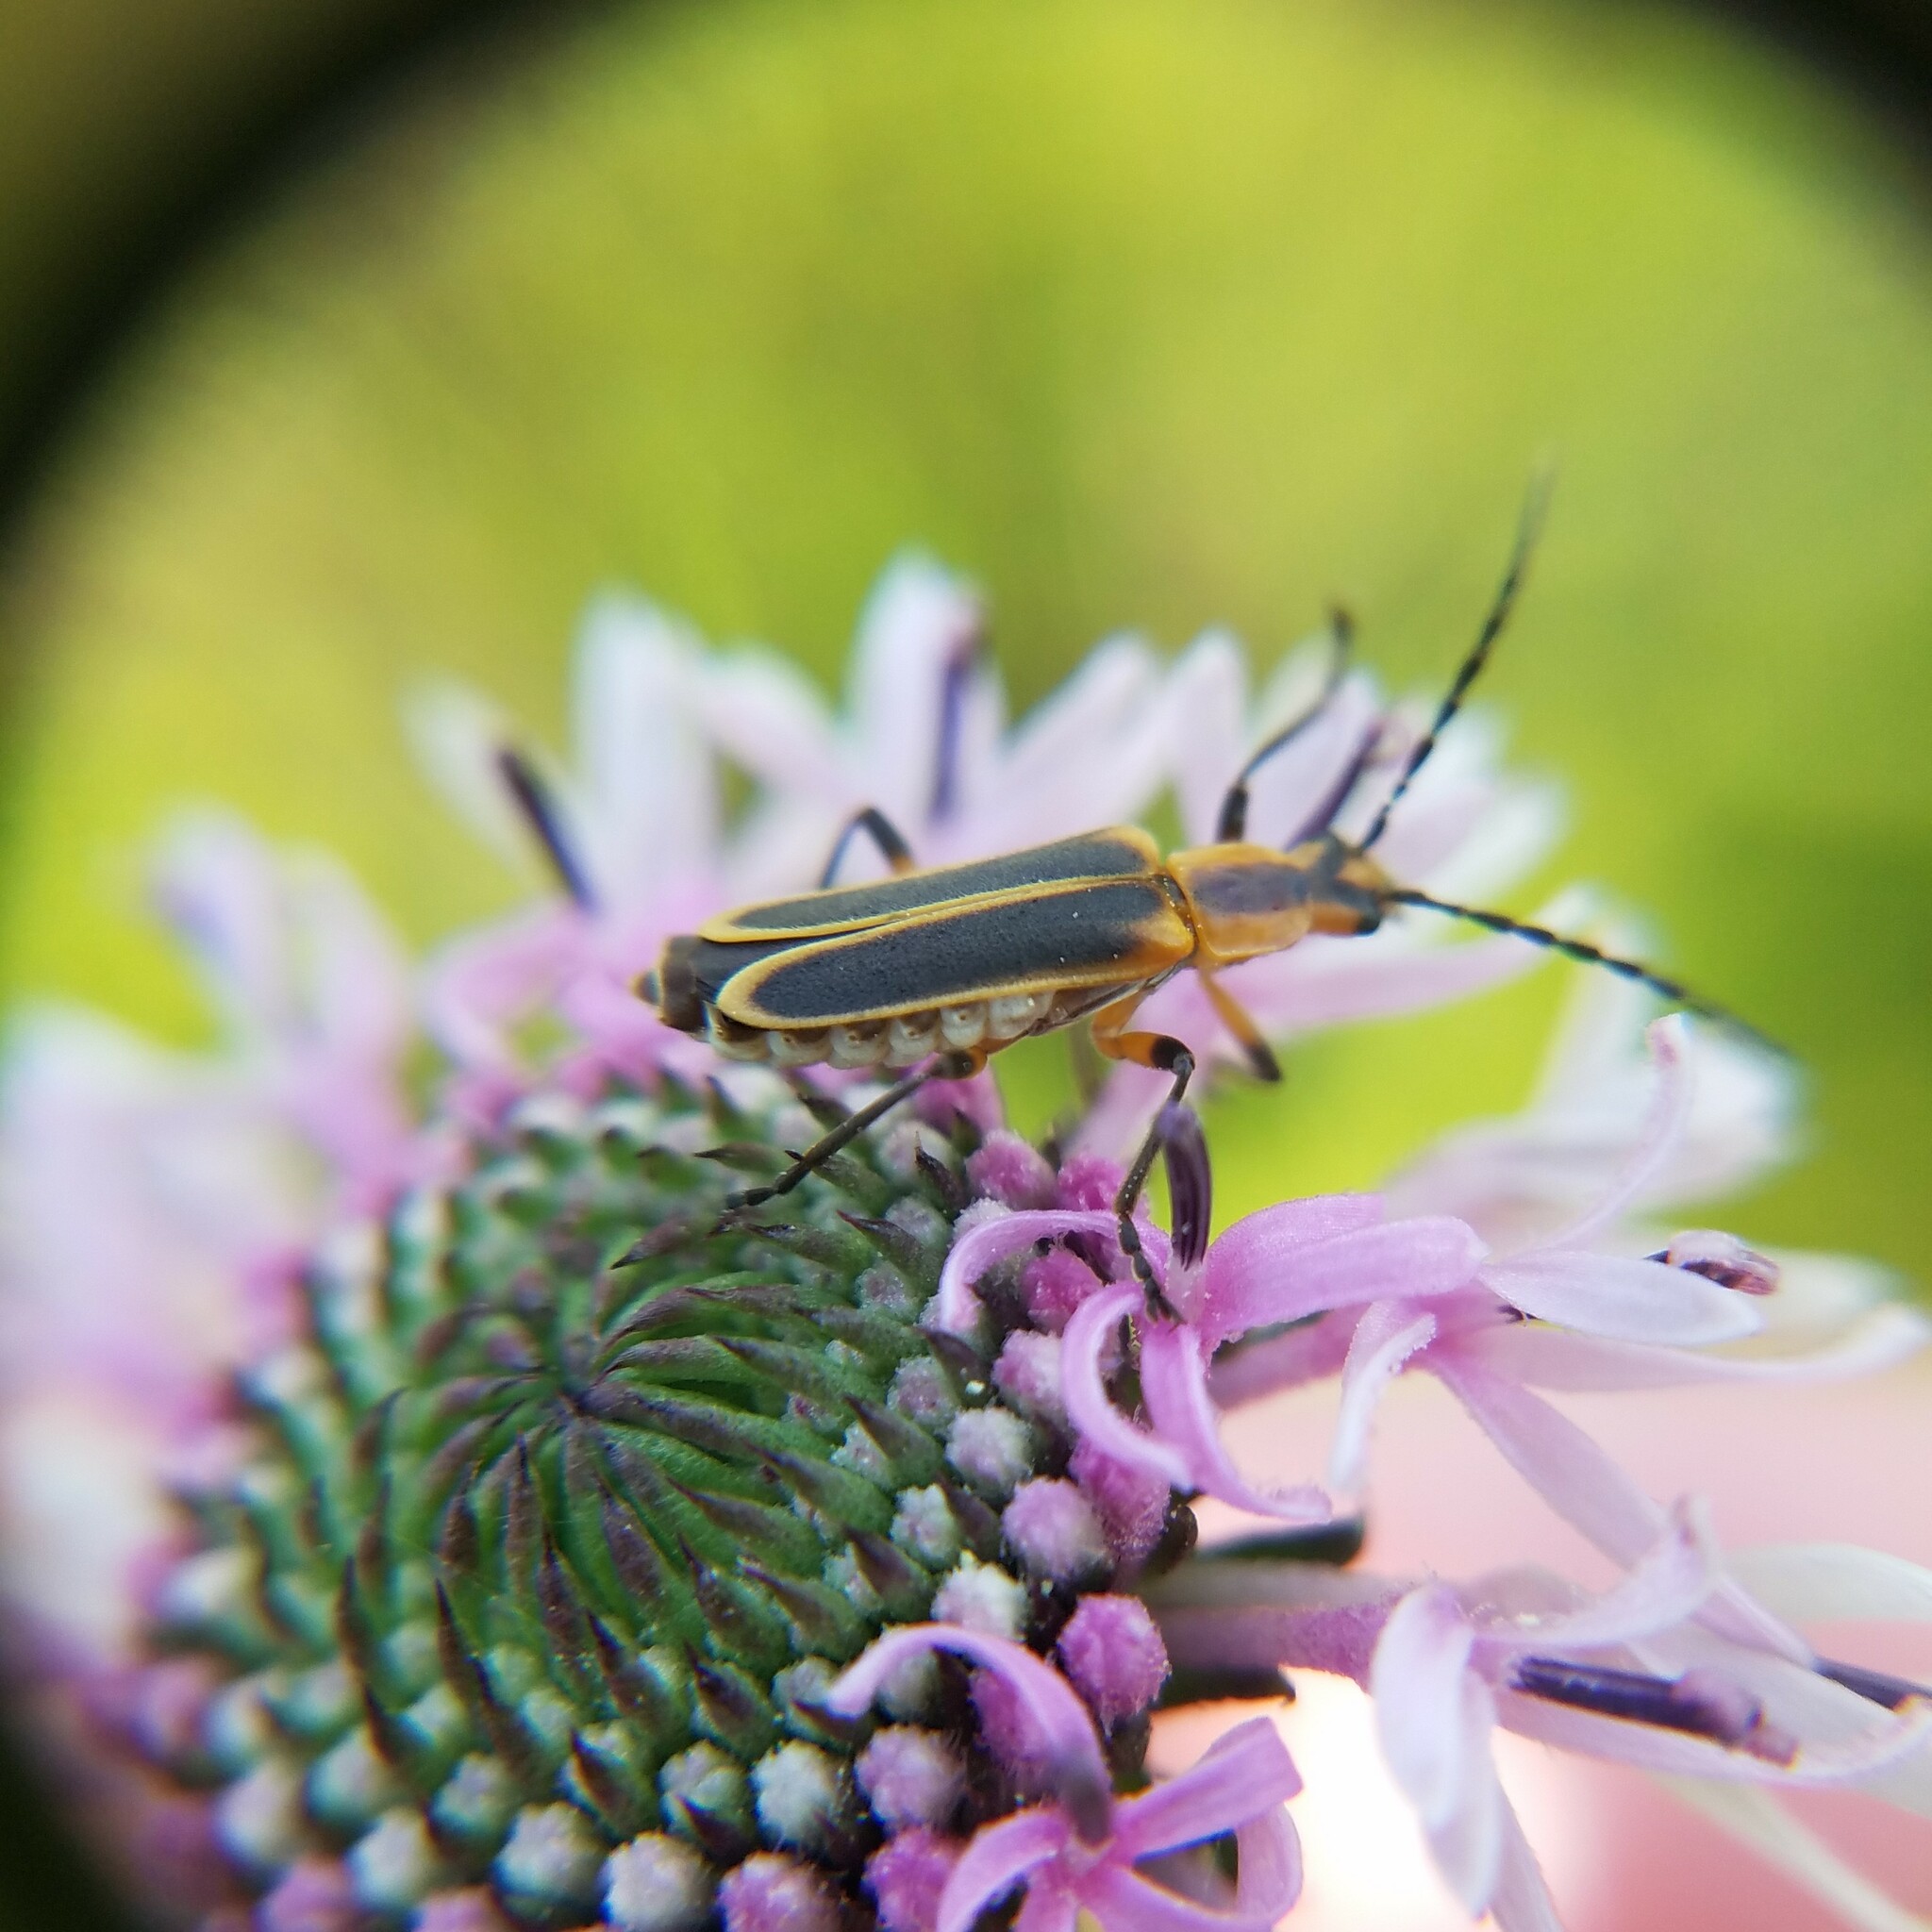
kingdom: Animalia
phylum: Arthropoda
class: Insecta
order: Coleoptera
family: Cantharidae
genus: Chauliognathus
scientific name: Chauliognathus marginatus
